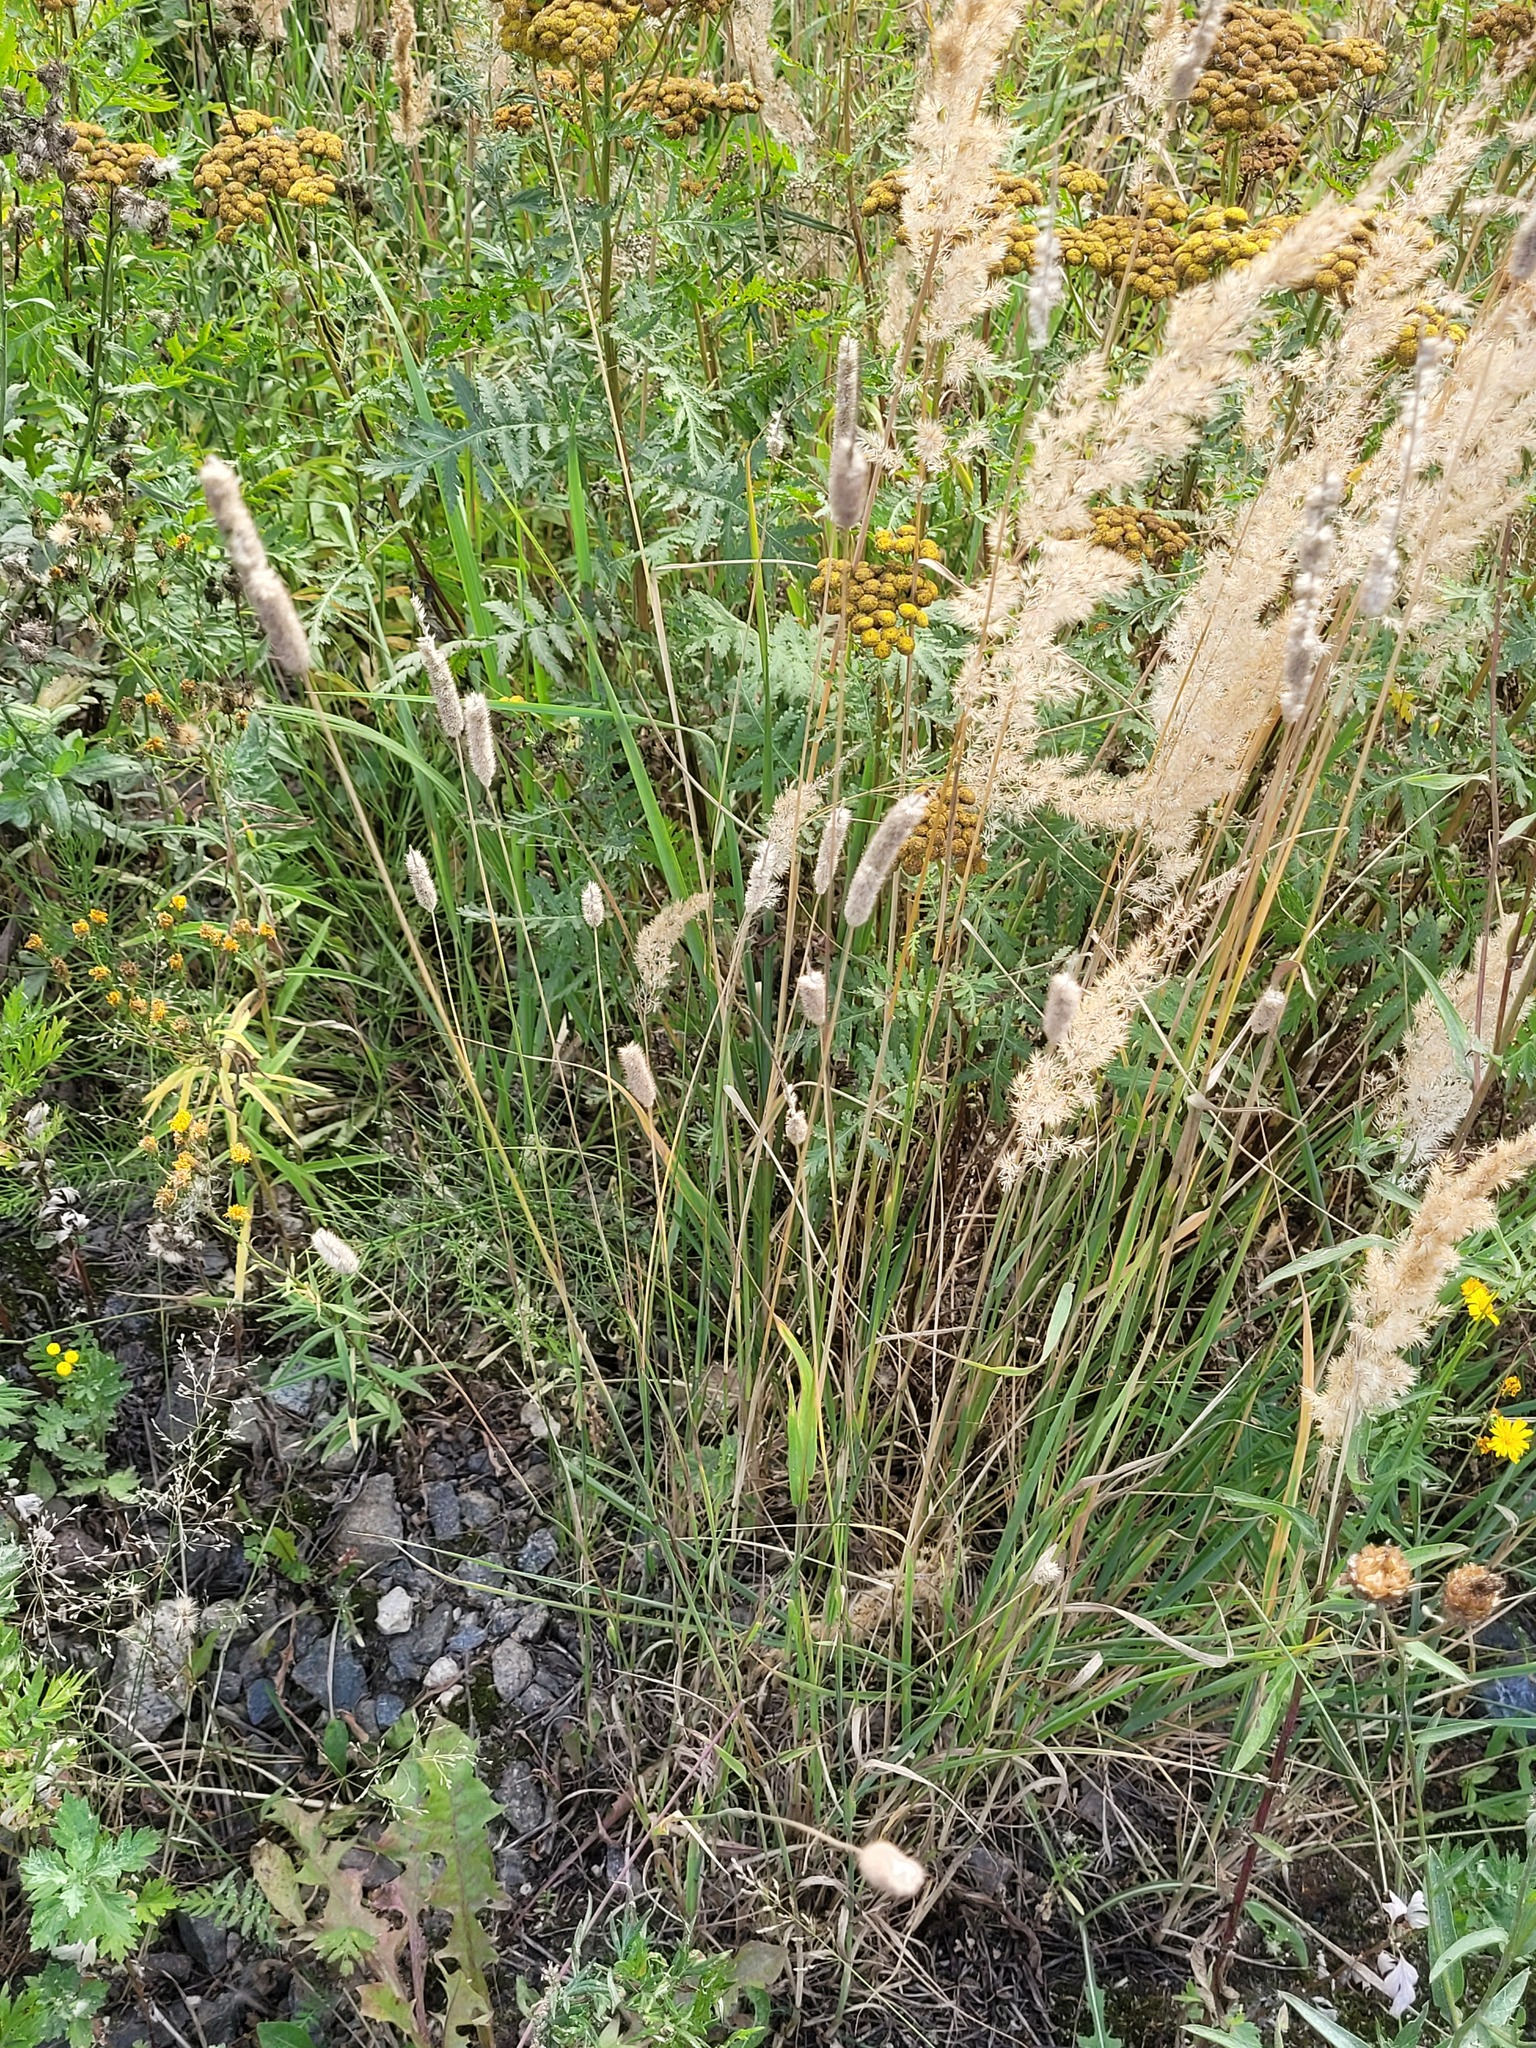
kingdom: Plantae
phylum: Tracheophyta
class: Liliopsida
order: Poales
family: Poaceae
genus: Phleum
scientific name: Phleum pratense
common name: Timothy grass
